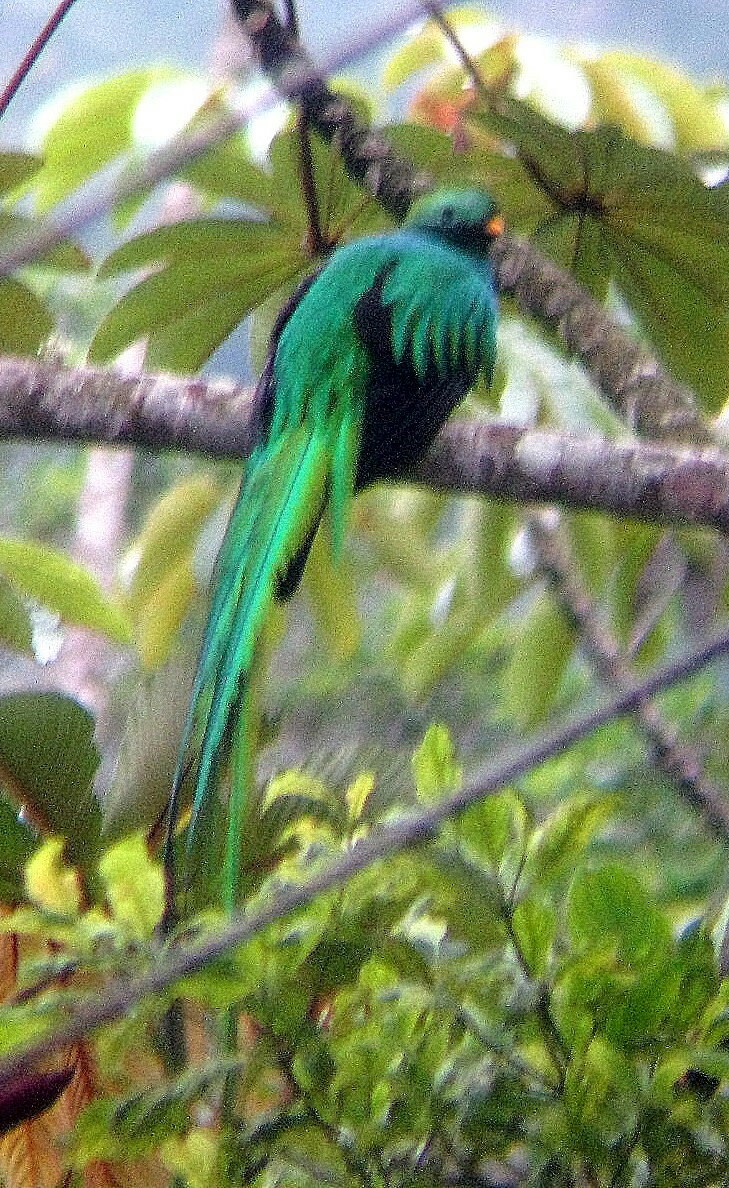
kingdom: Animalia
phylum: Chordata
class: Aves
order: Trogoniformes
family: Trogonidae
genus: Pharomachrus
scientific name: Pharomachrus mocinno
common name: Resplendent quetzal
